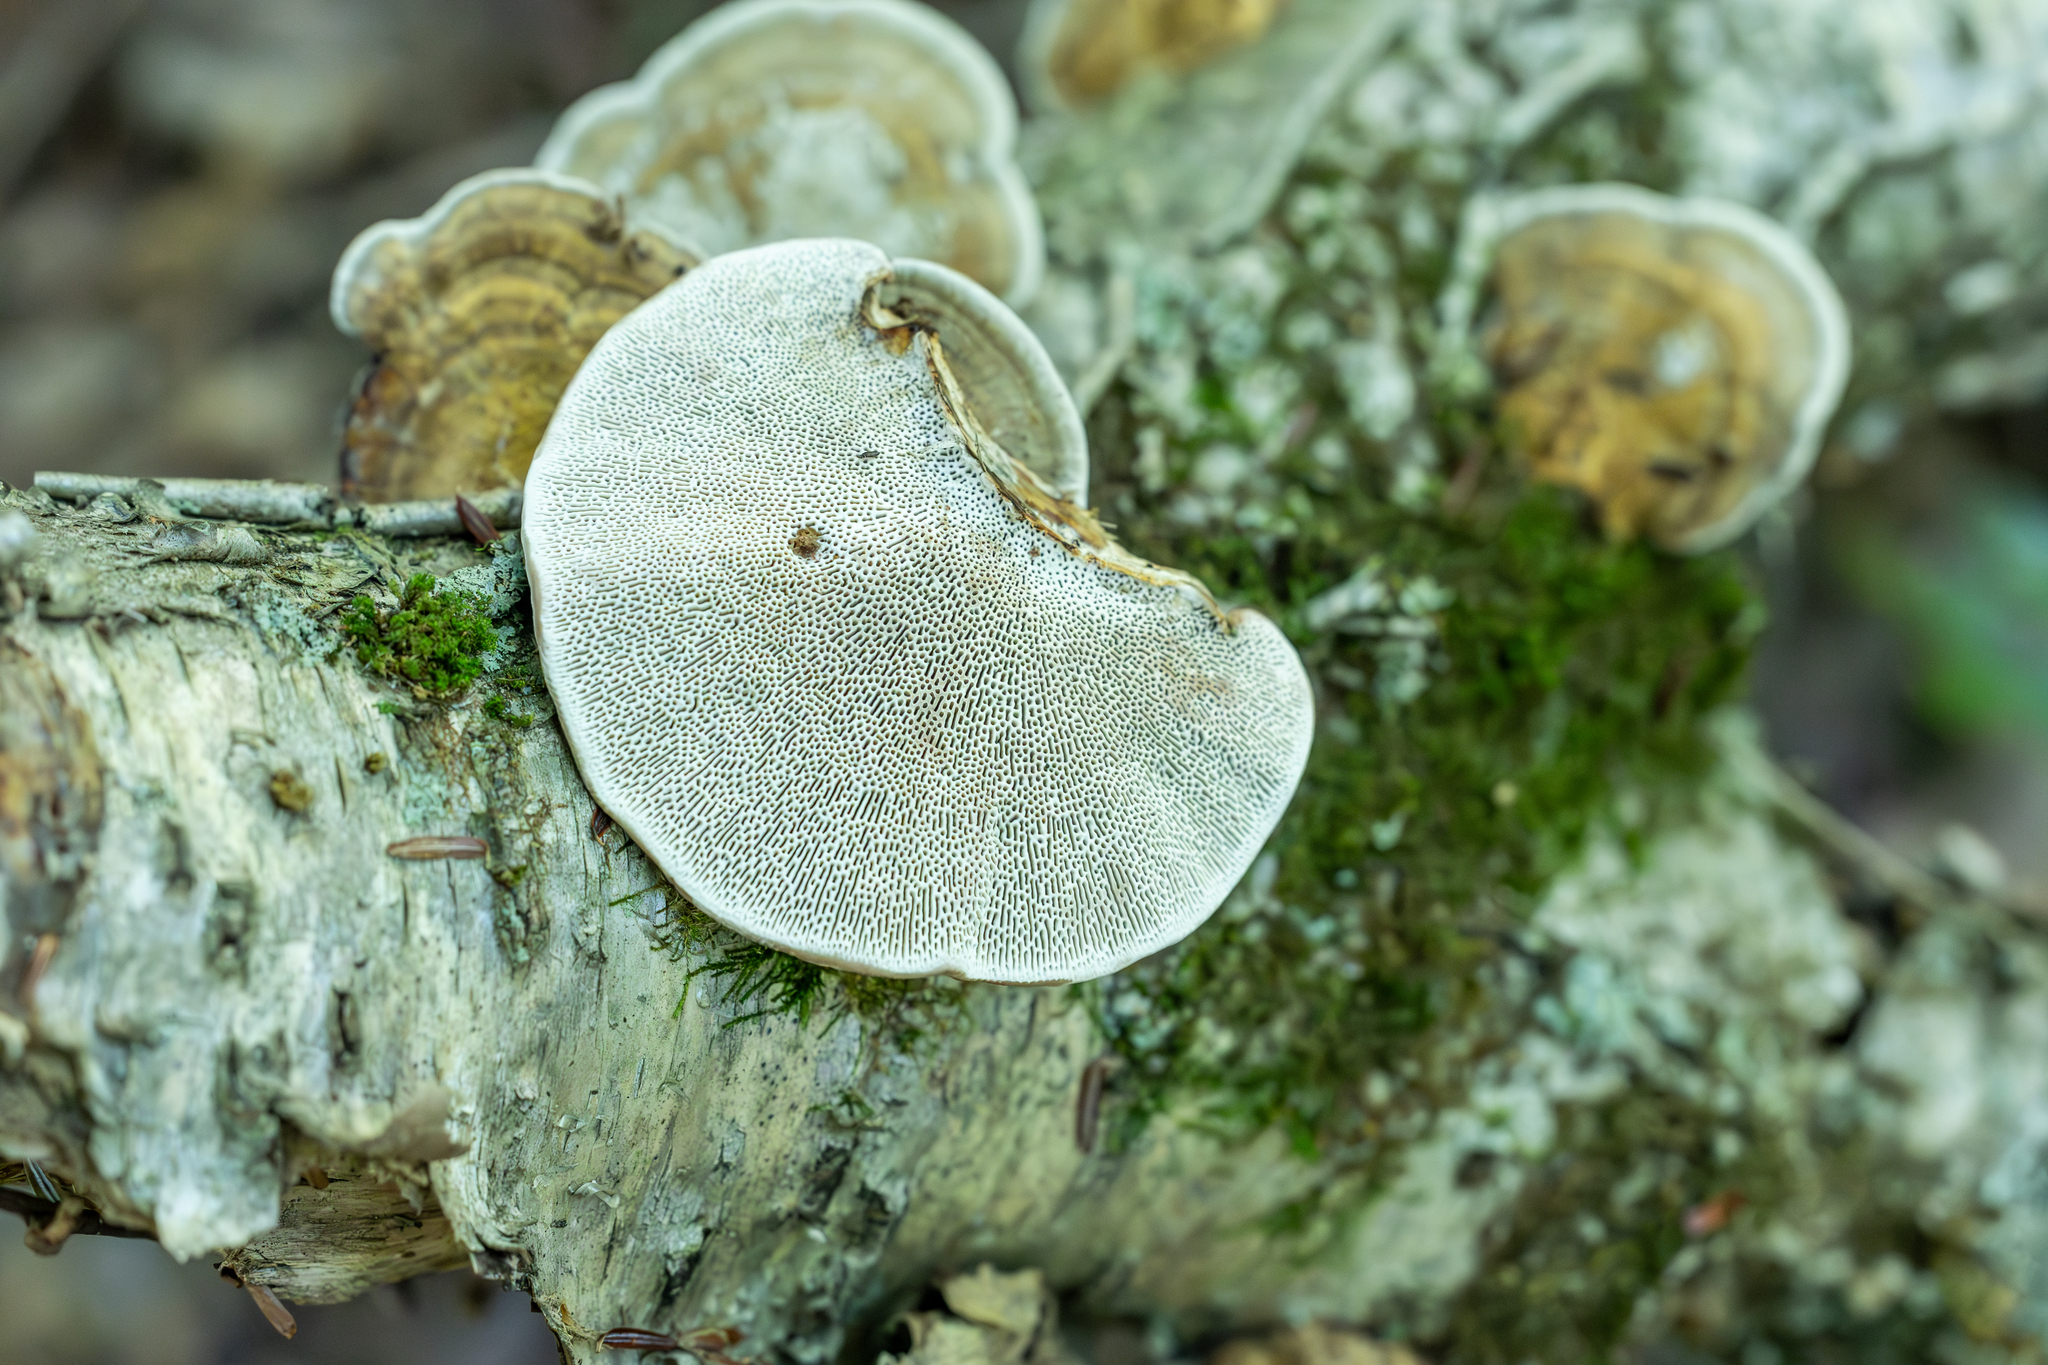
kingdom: Fungi
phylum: Basidiomycota
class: Agaricomycetes
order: Polyporales
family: Polyporaceae
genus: Daedaleopsis
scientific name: Daedaleopsis confragosa
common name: Blushing bracket
